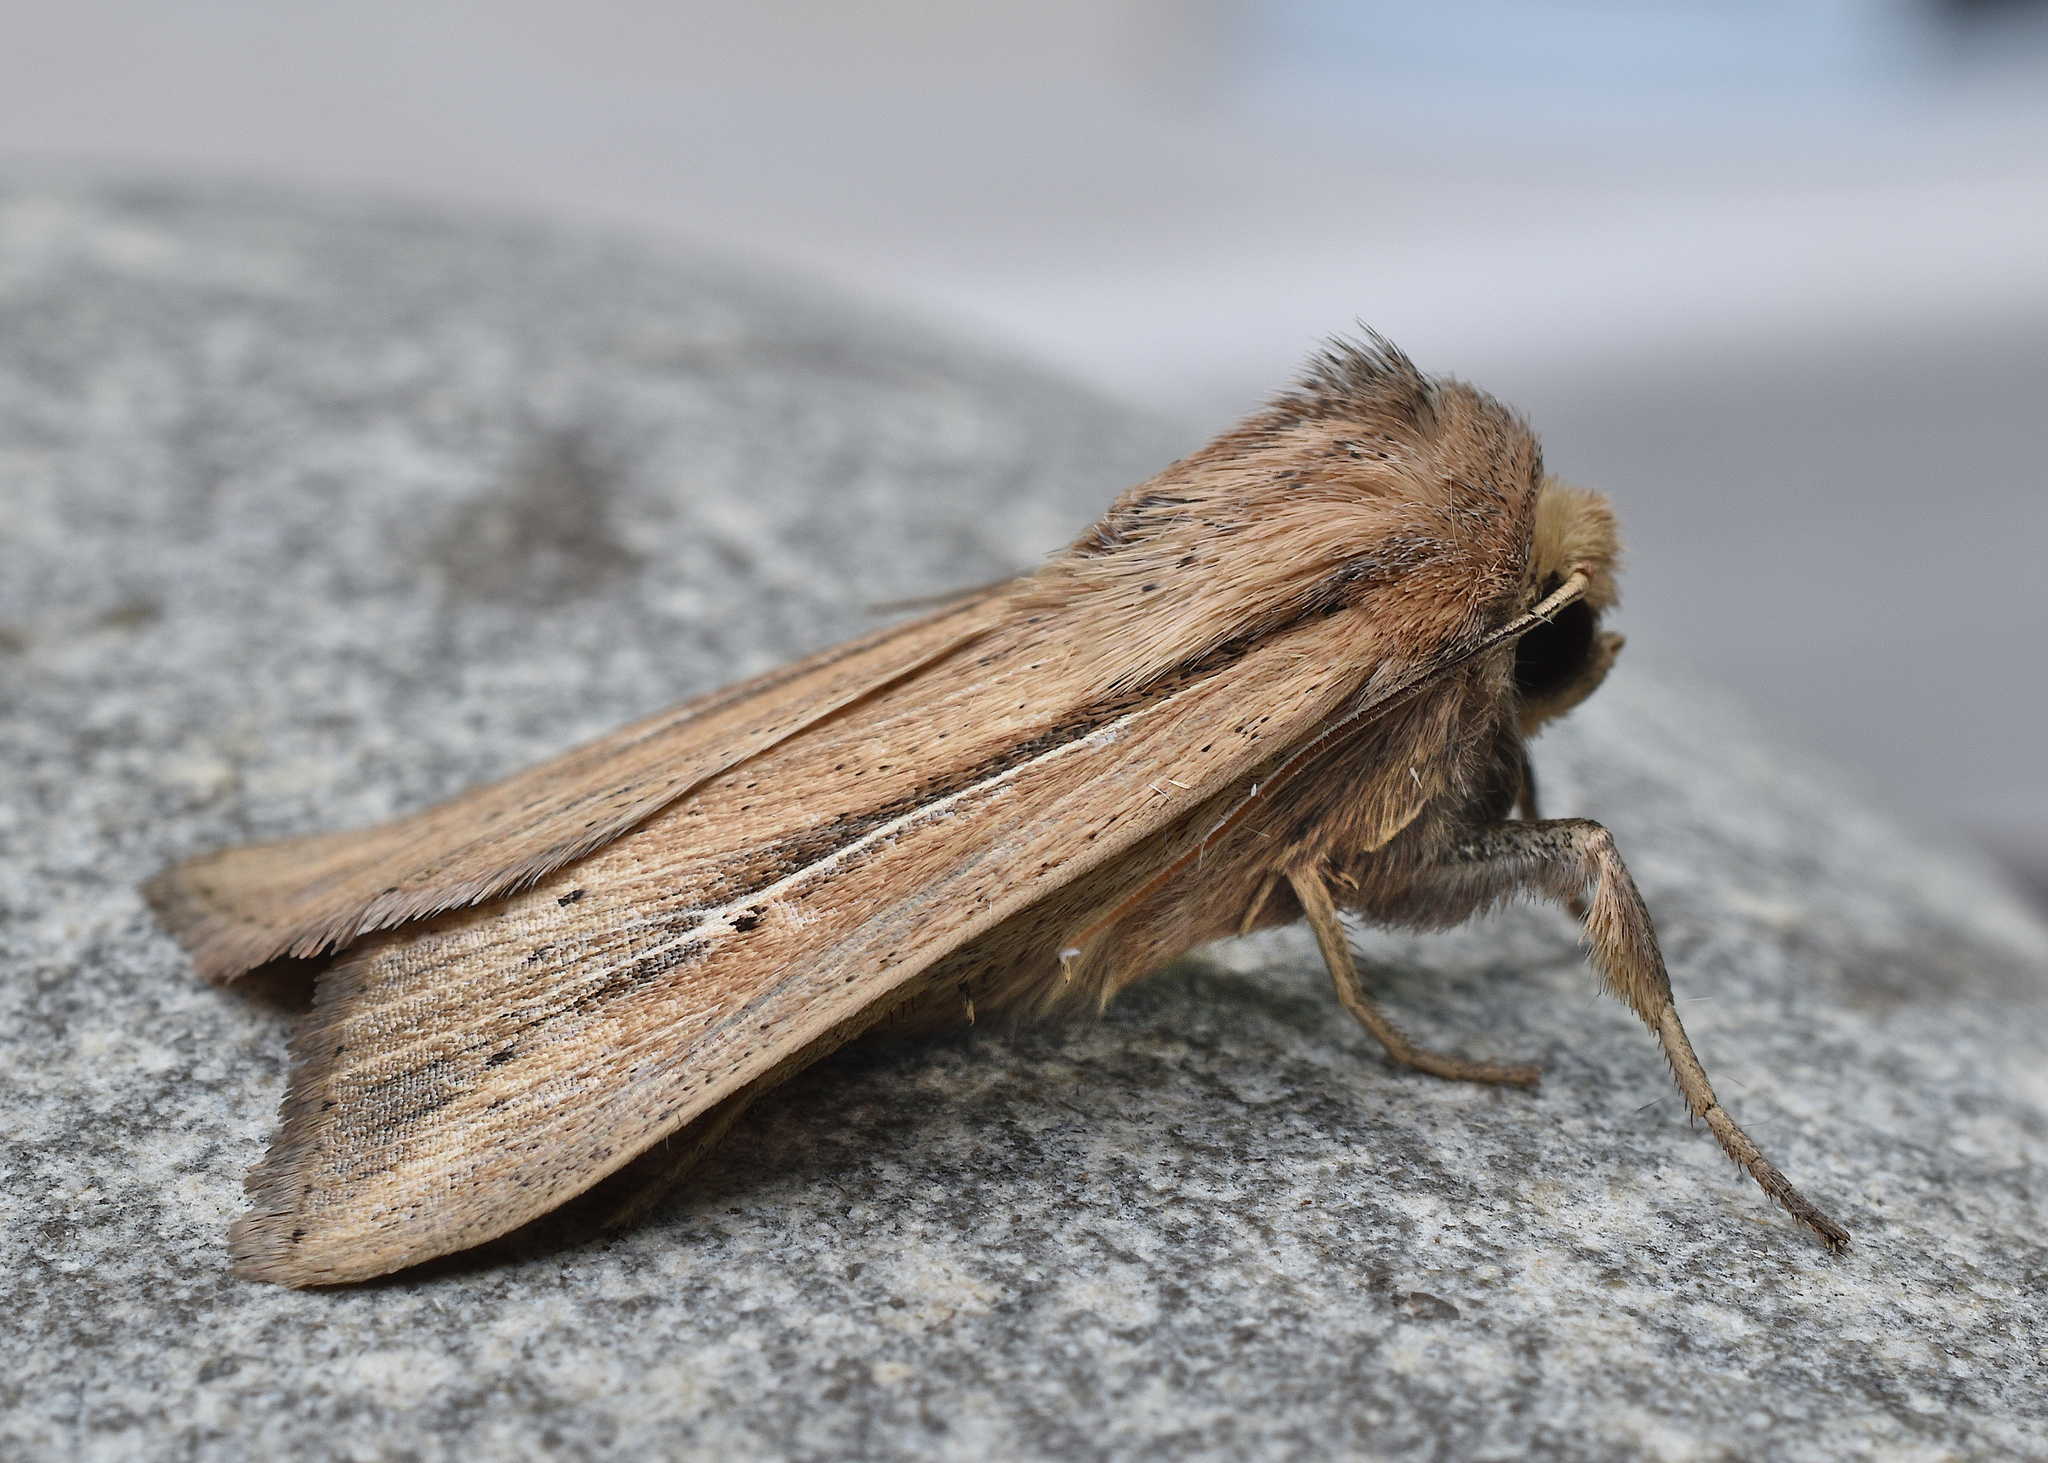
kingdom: Animalia
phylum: Arthropoda
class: Insecta
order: Lepidoptera
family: Noctuidae
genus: Leucania
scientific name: Leucania phragmitidicola
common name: Phragmites wainscot
